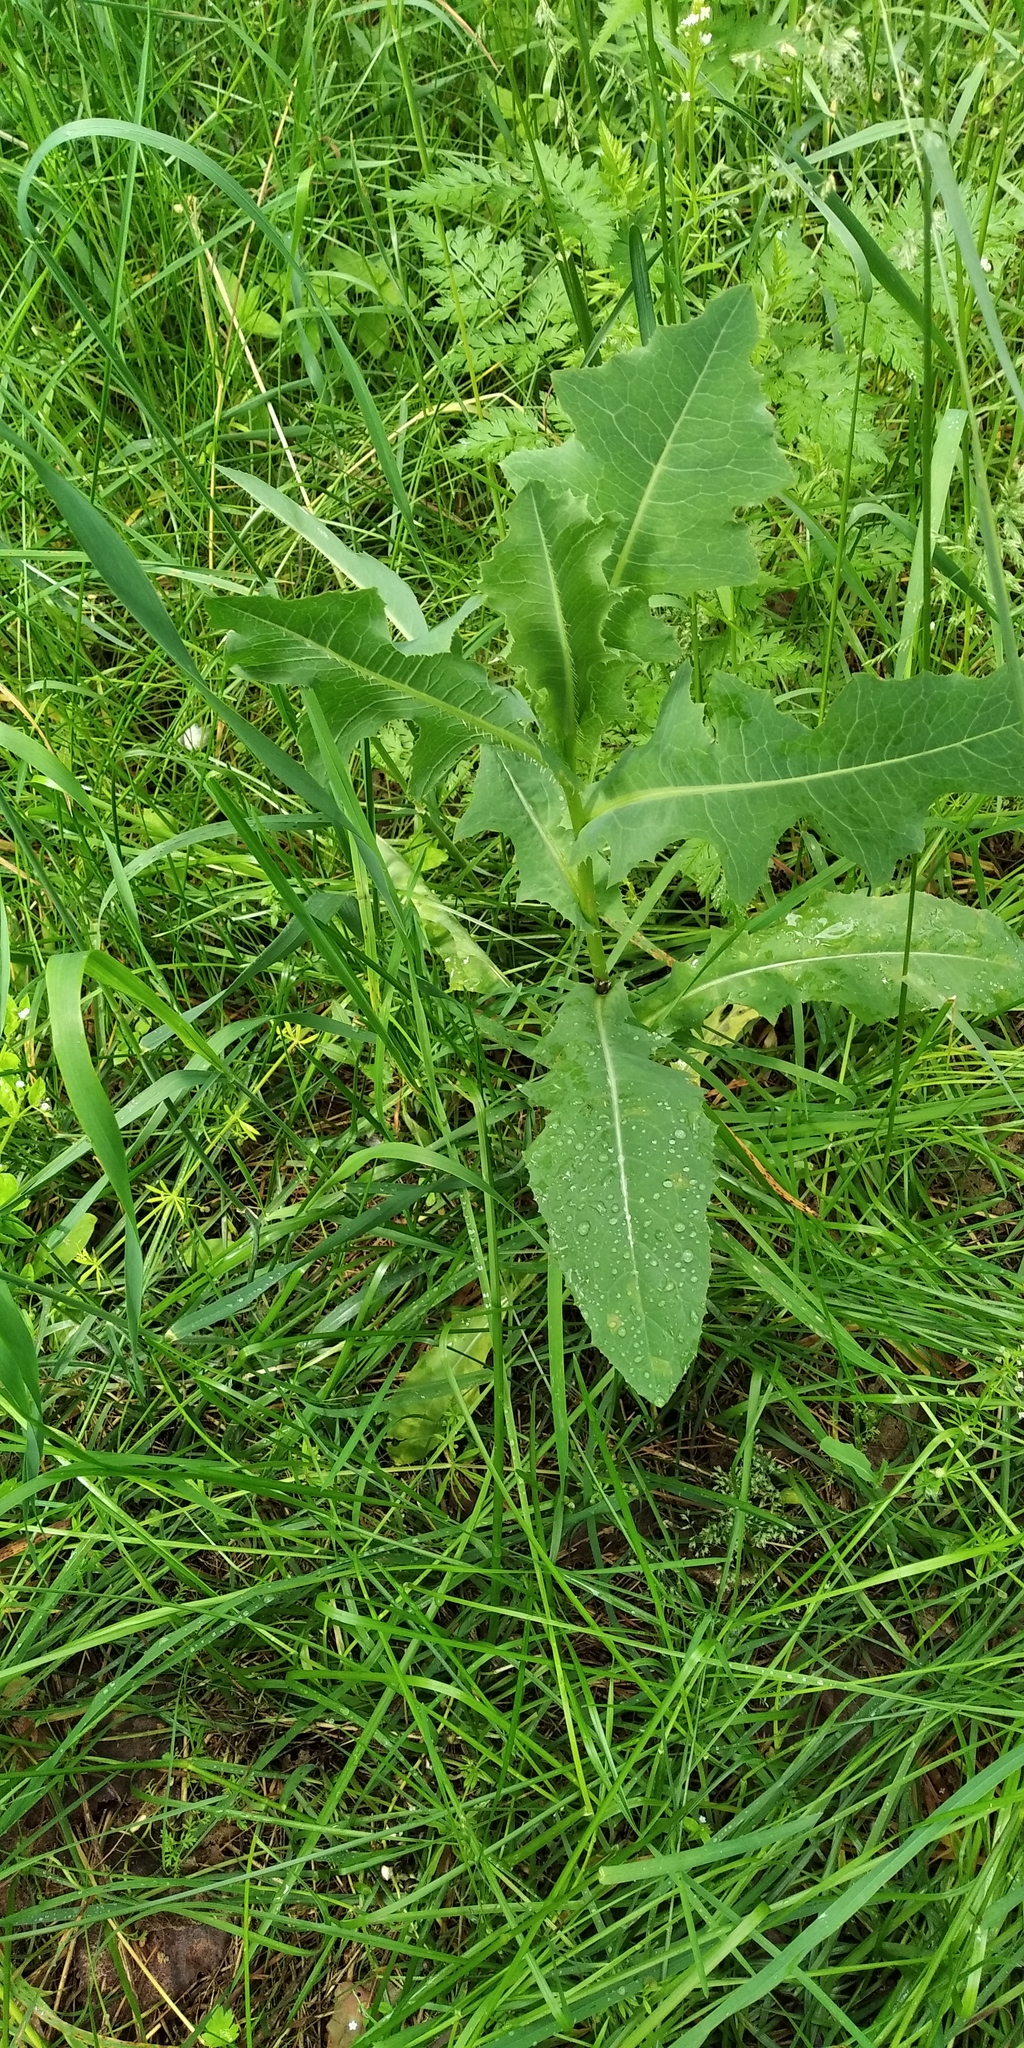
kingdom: Plantae
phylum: Tracheophyta
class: Magnoliopsida
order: Asterales
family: Asteraceae
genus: Lactuca
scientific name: Lactuca serriola
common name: Prickly lettuce
